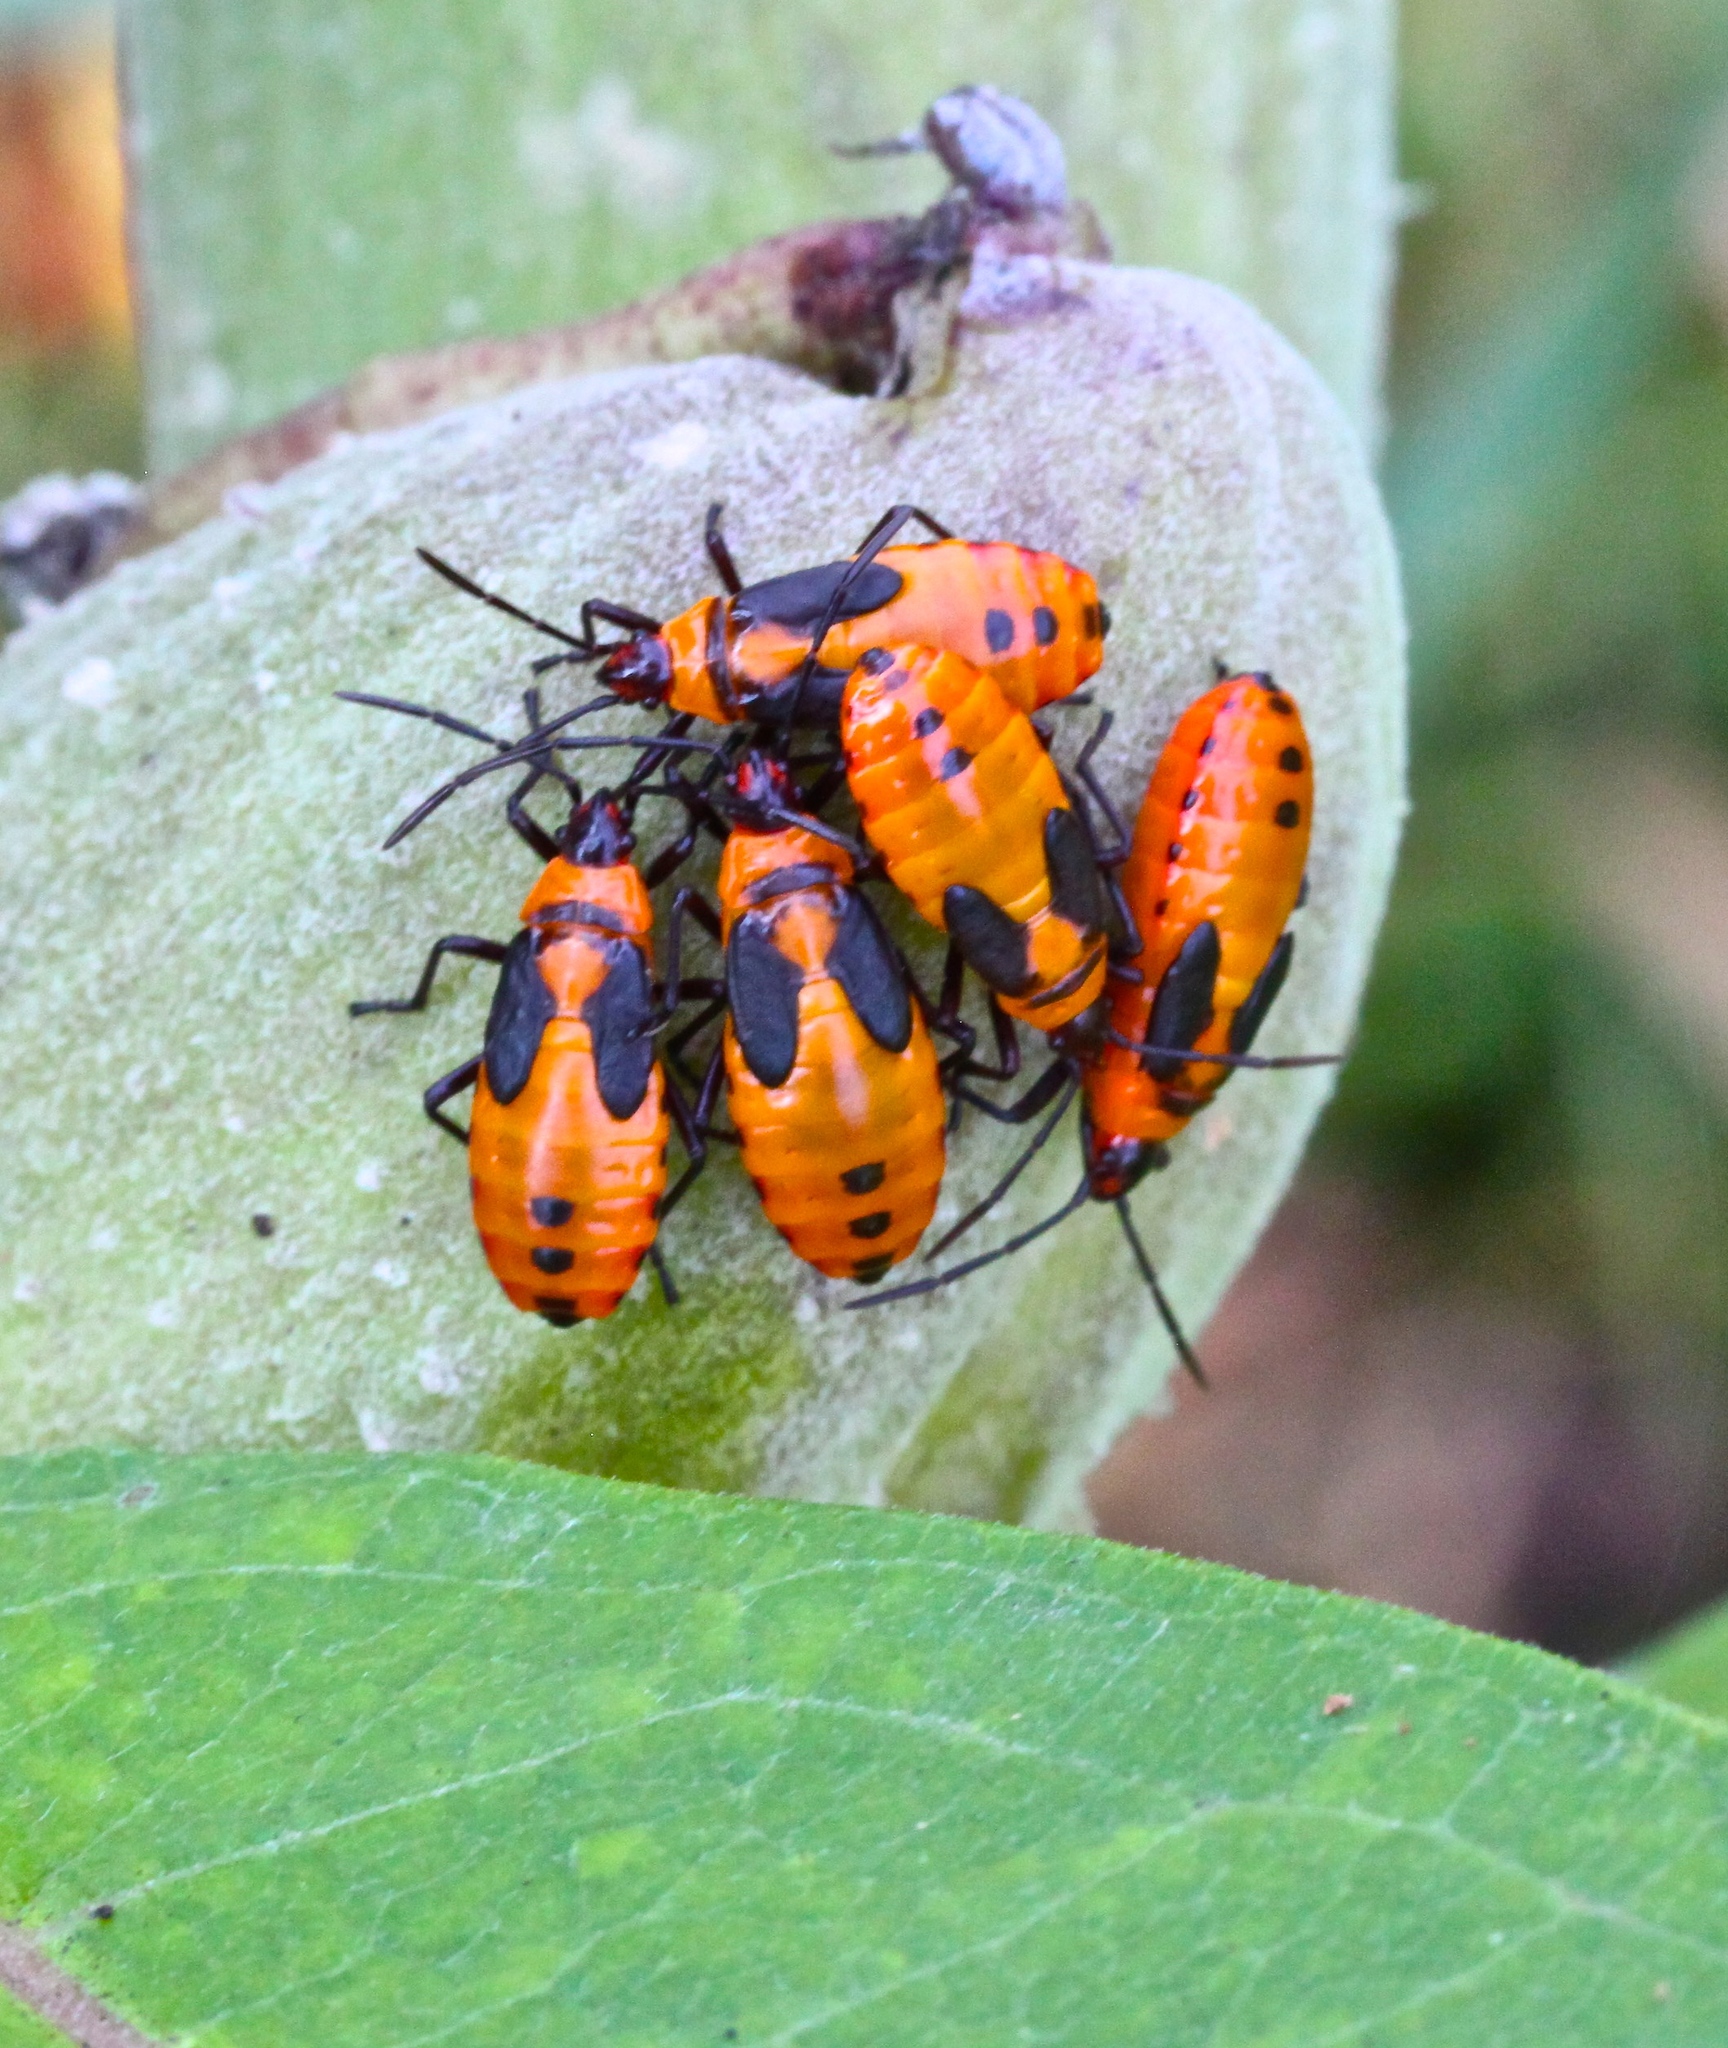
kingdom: Animalia
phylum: Arthropoda
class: Insecta
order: Hemiptera
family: Lygaeidae
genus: Oncopeltus
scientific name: Oncopeltus fasciatus
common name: Large milkweed bug
